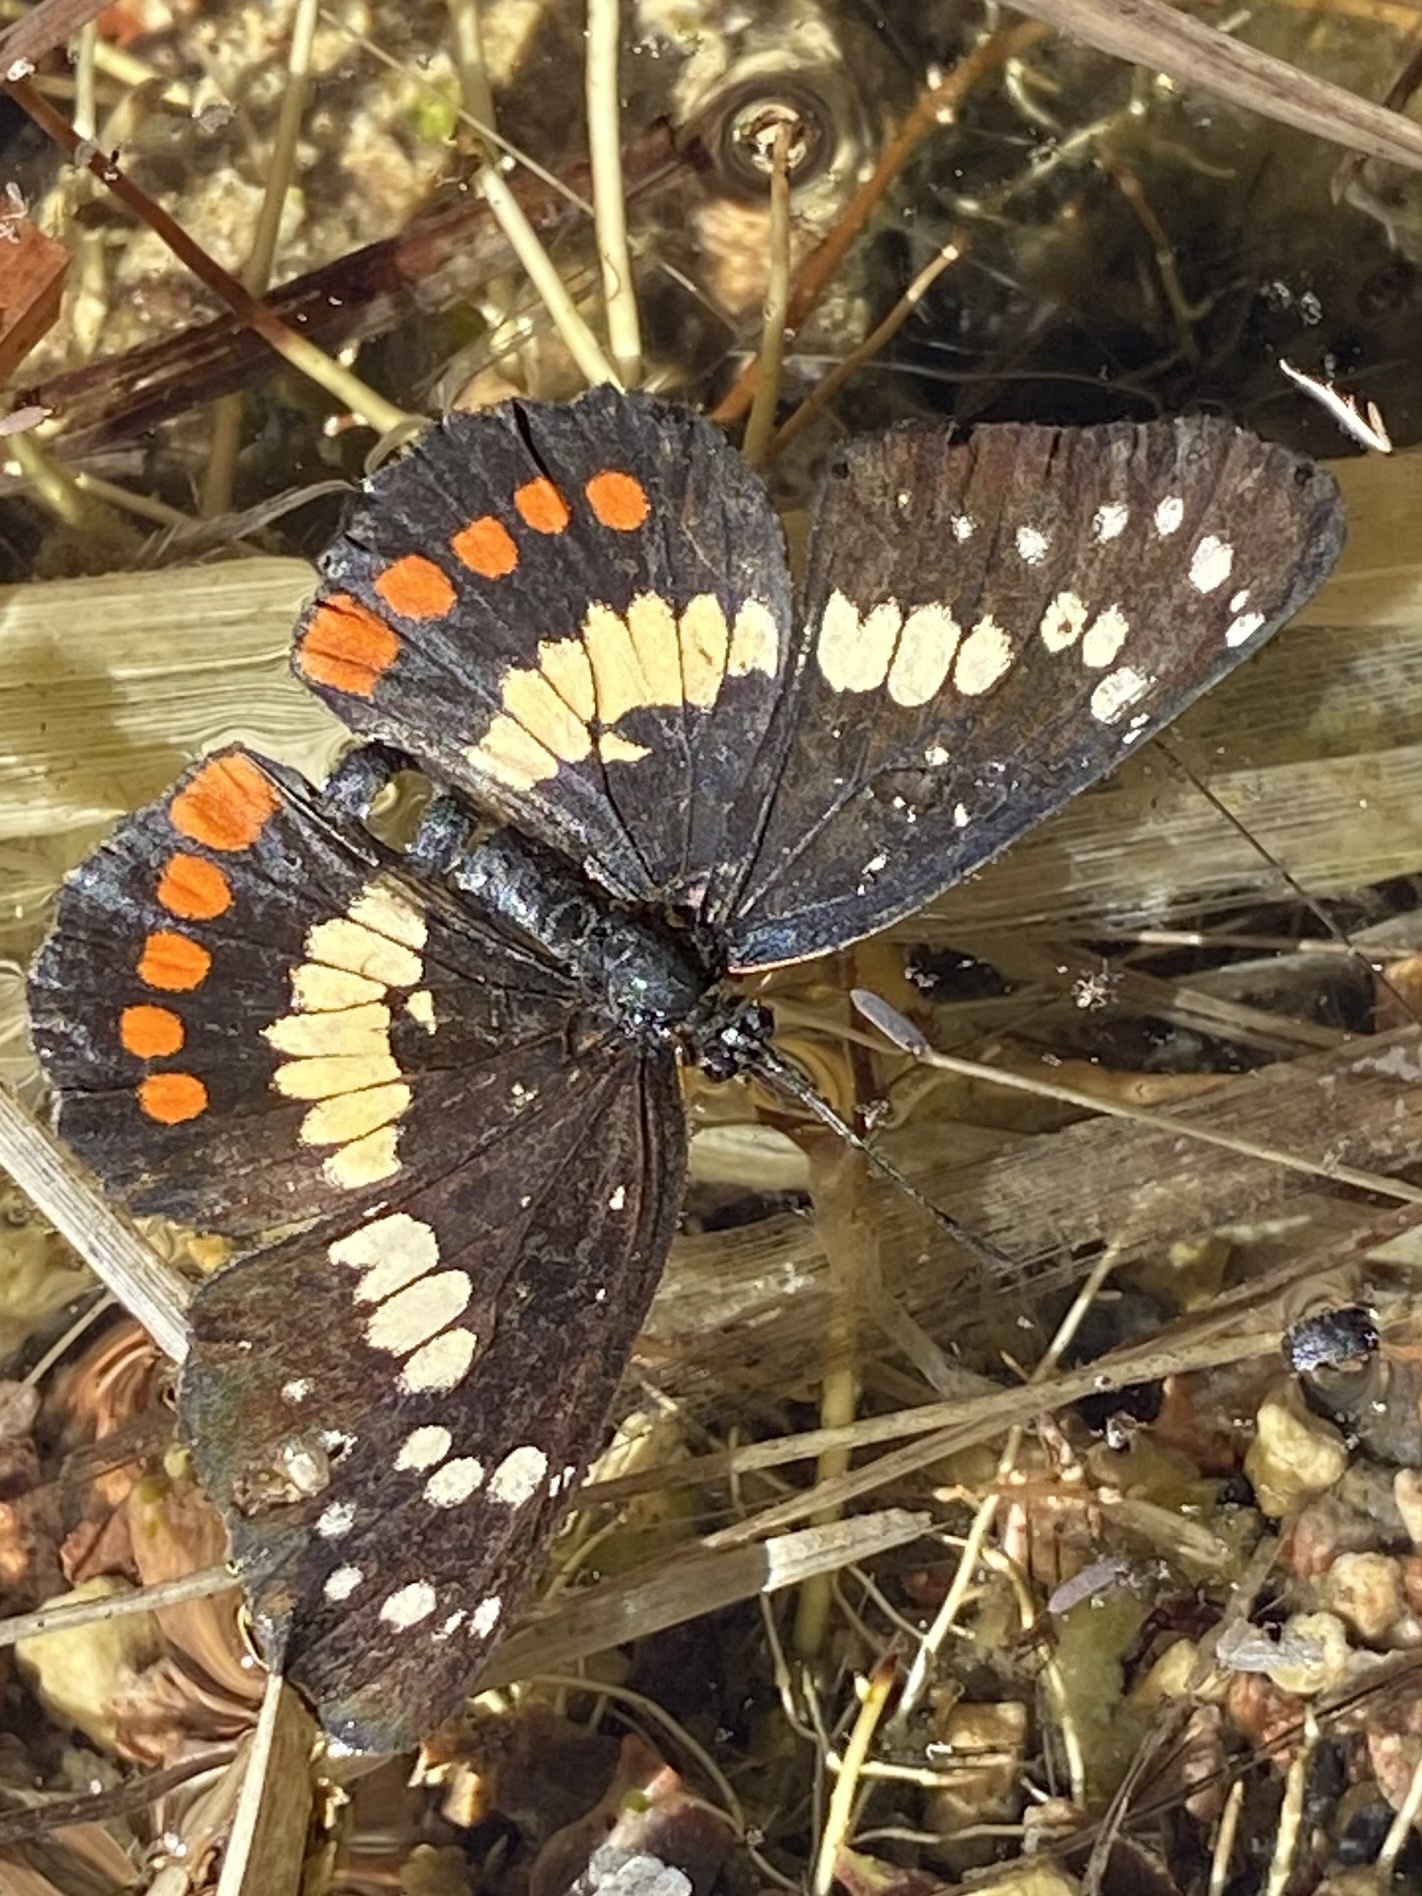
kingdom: Animalia
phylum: Arthropoda
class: Insecta
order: Lepidoptera
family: Nymphalidae
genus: Chlosyne
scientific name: Chlosyne eumeda
